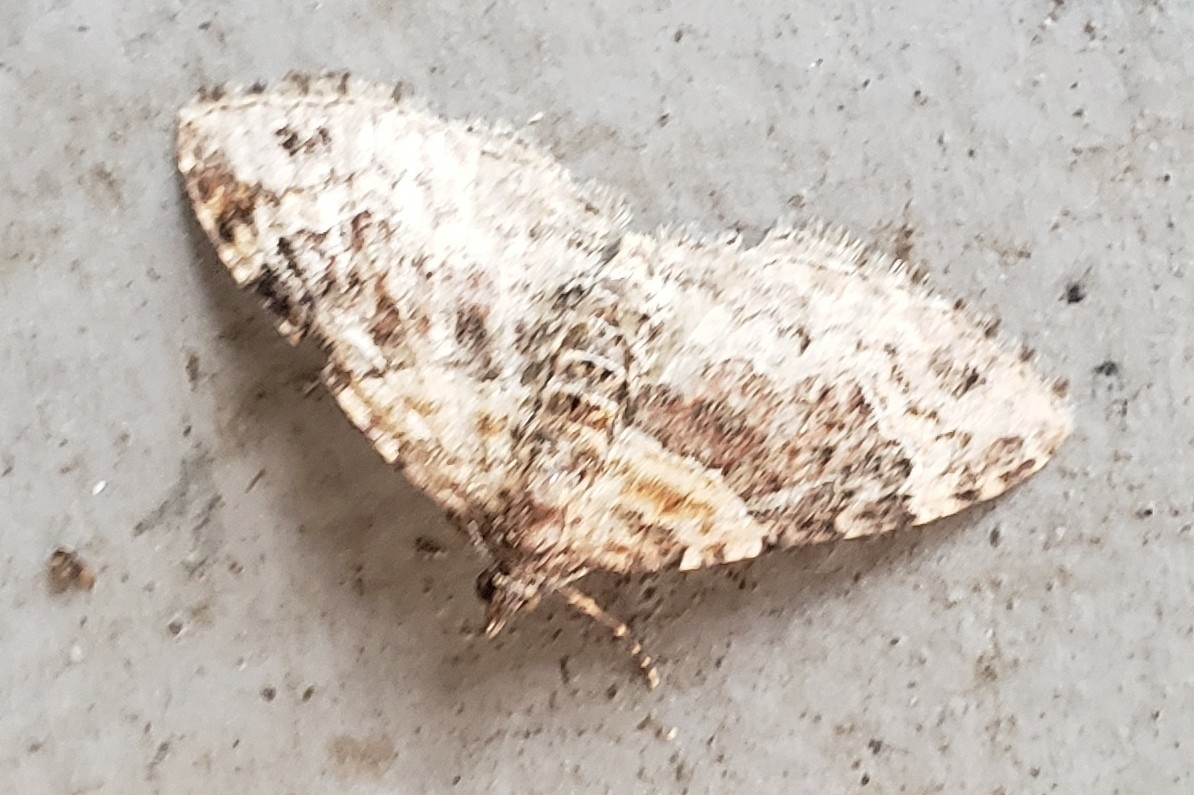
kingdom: Animalia
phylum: Arthropoda
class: Insecta
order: Lepidoptera
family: Geometridae
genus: Xanthorhoe
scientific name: Xanthorhoe ferrugata
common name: Dark-barred twin-spot carpet
